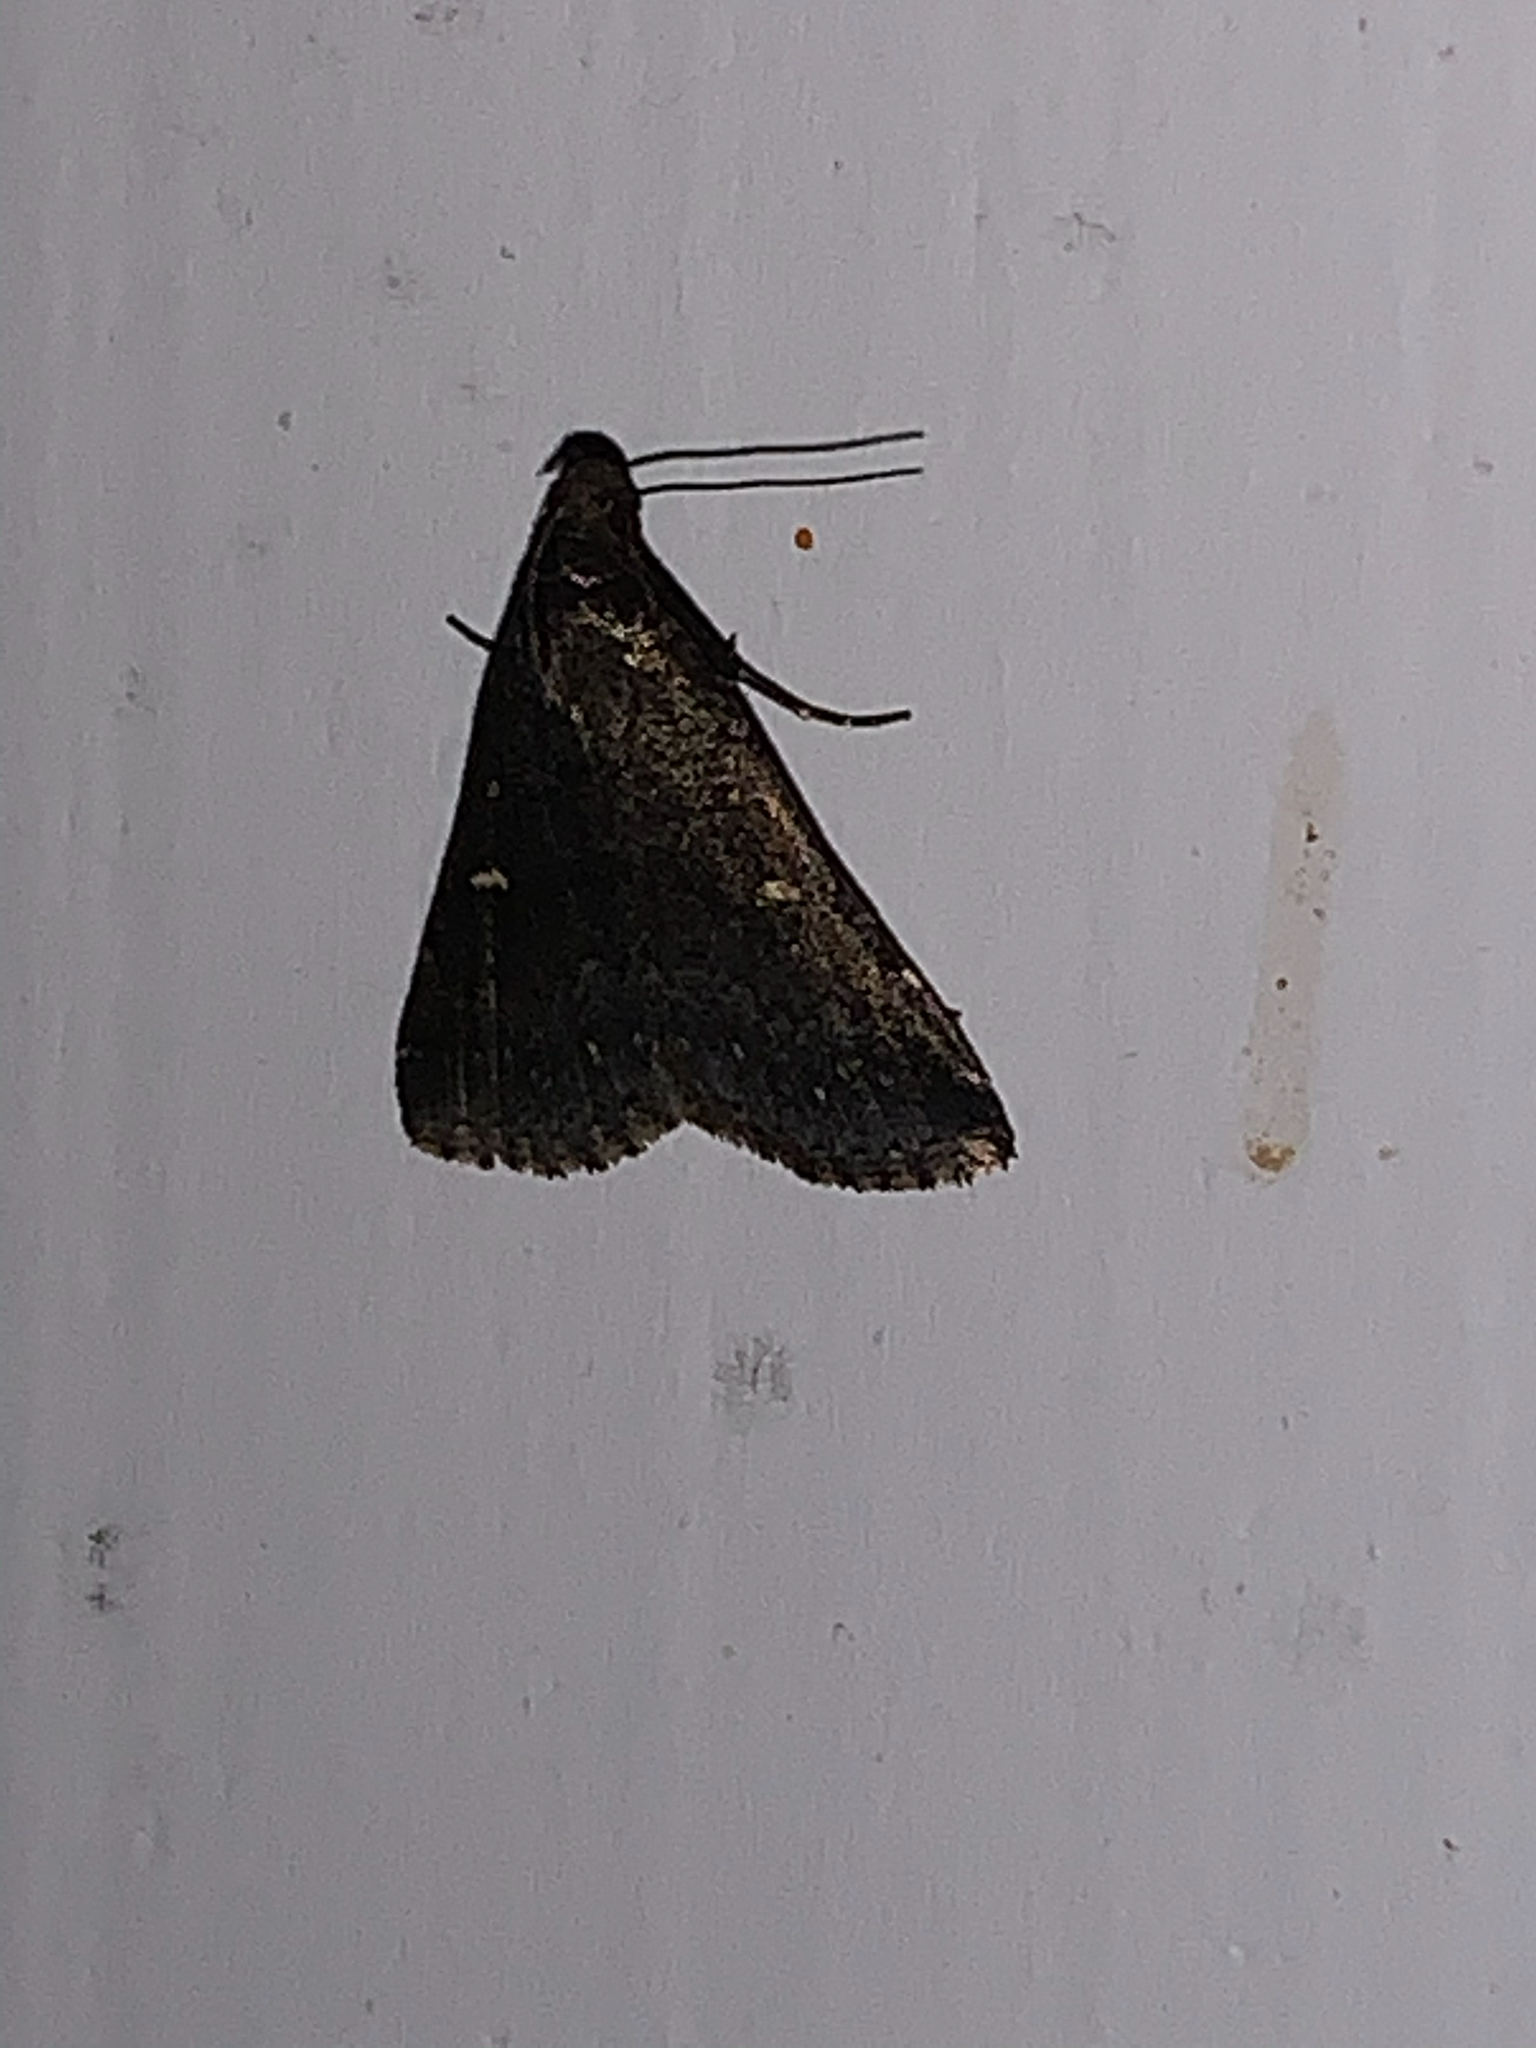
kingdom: Animalia
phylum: Arthropoda
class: Insecta
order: Lepidoptera
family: Erebidae
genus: Tetanolita
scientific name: Tetanolita mynesalis
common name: Smoky tetanolita moth
